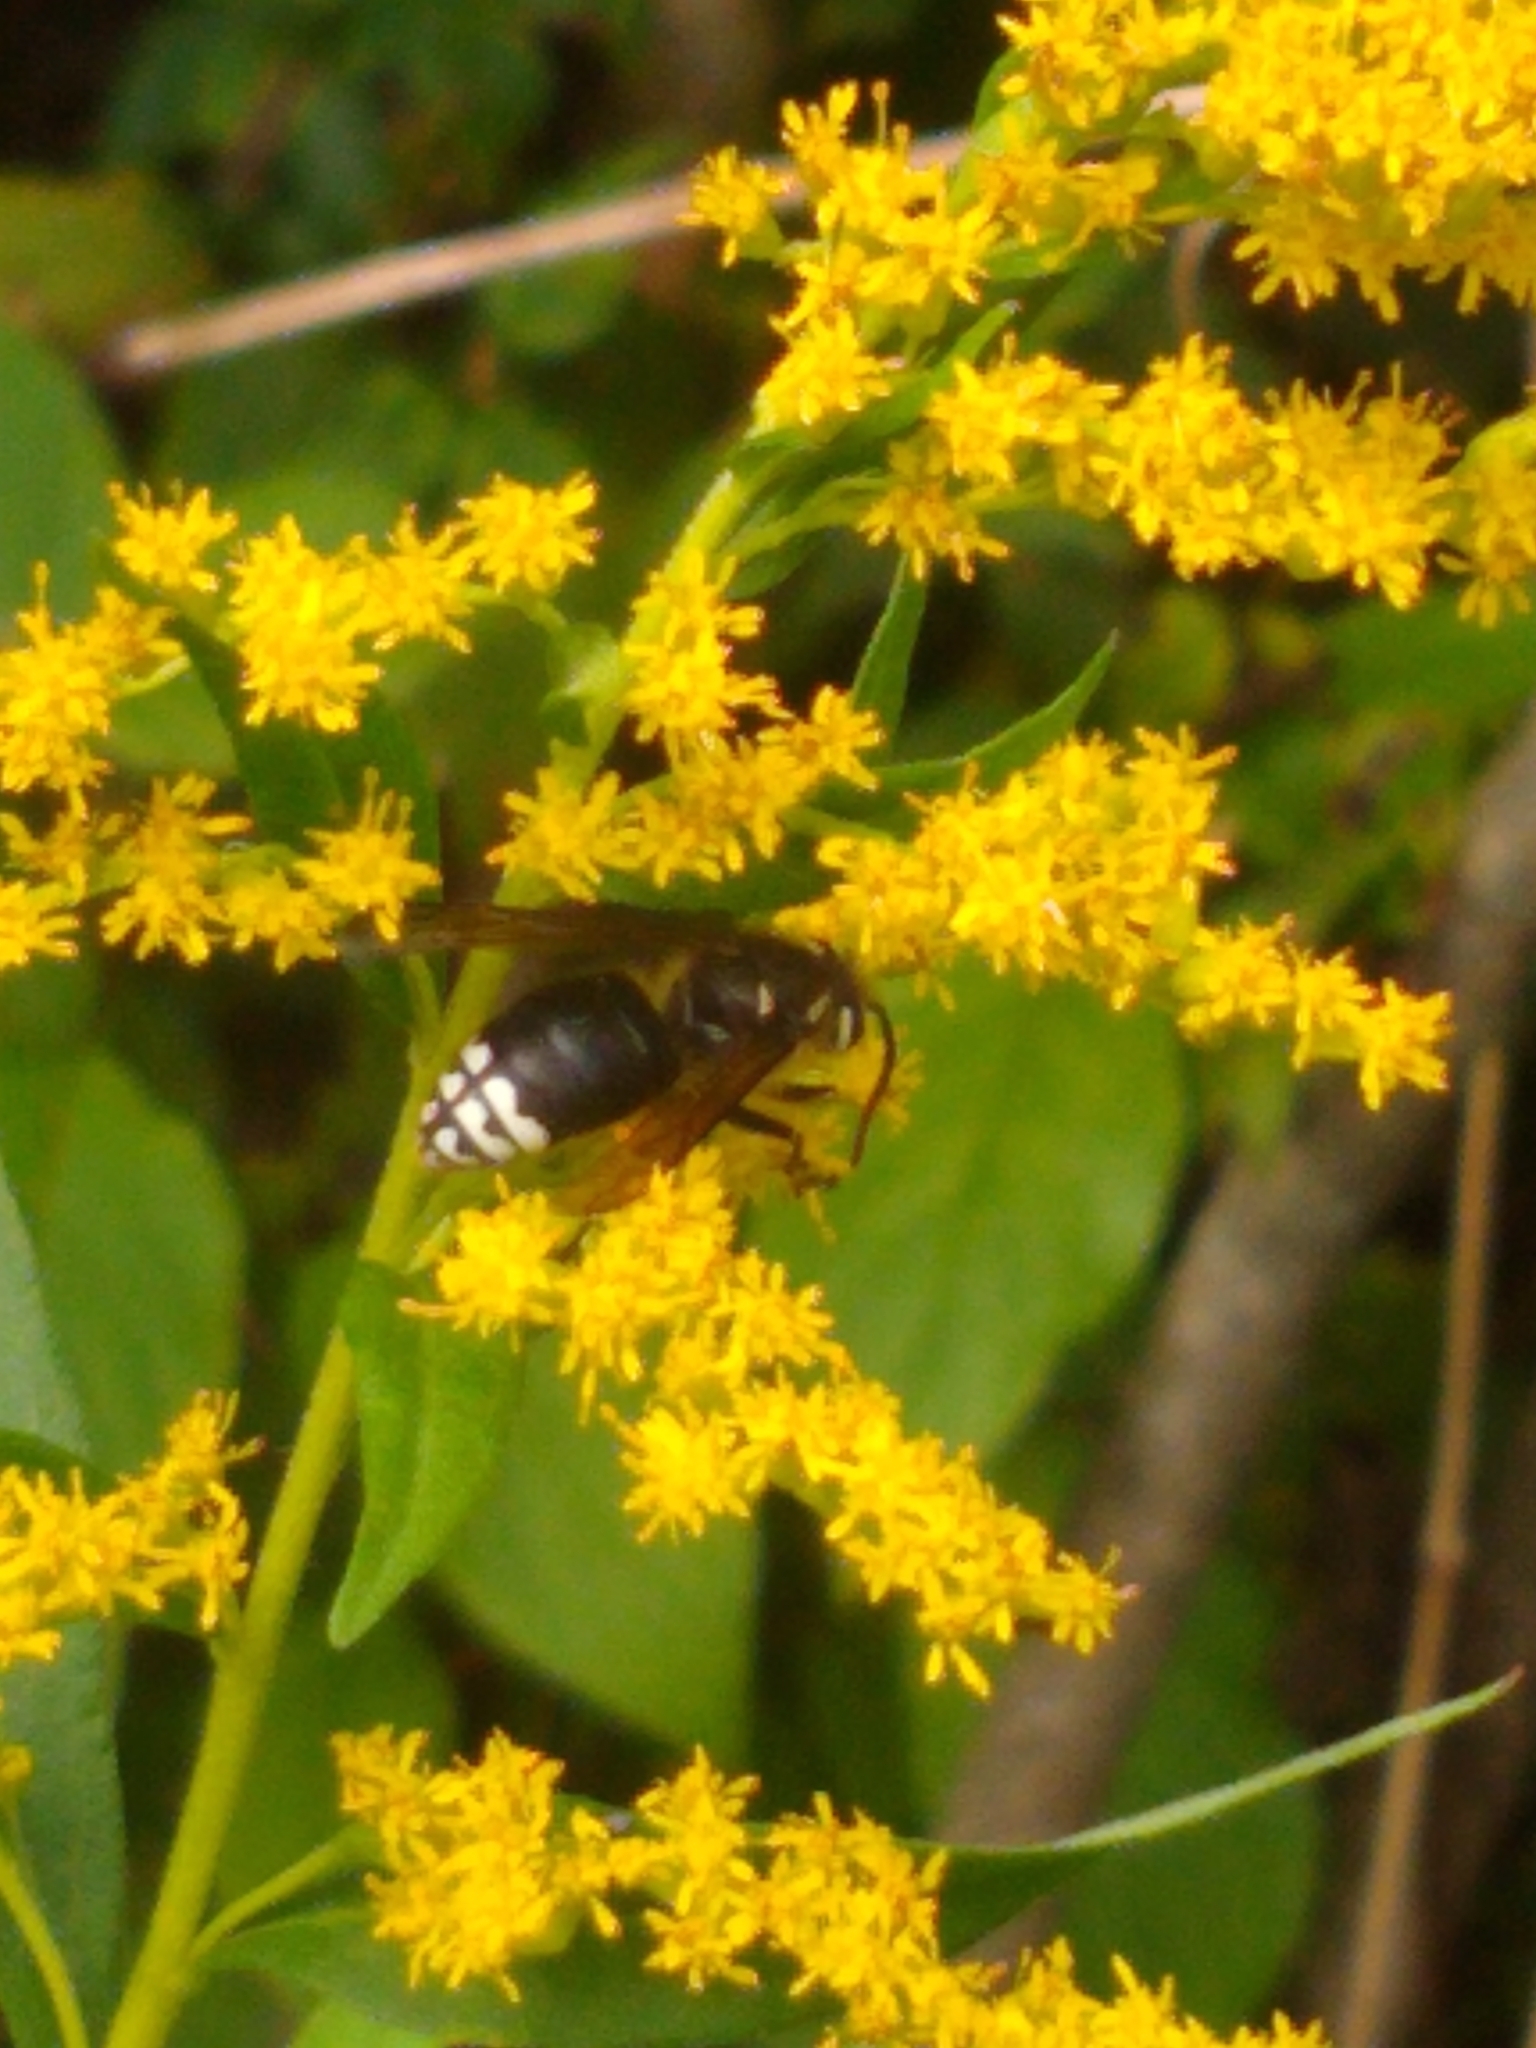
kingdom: Animalia
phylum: Arthropoda
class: Insecta
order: Hymenoptera
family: Vespidae
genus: Dolichovespula
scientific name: Dolichovespula maculata
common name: Bald-faced hornet
